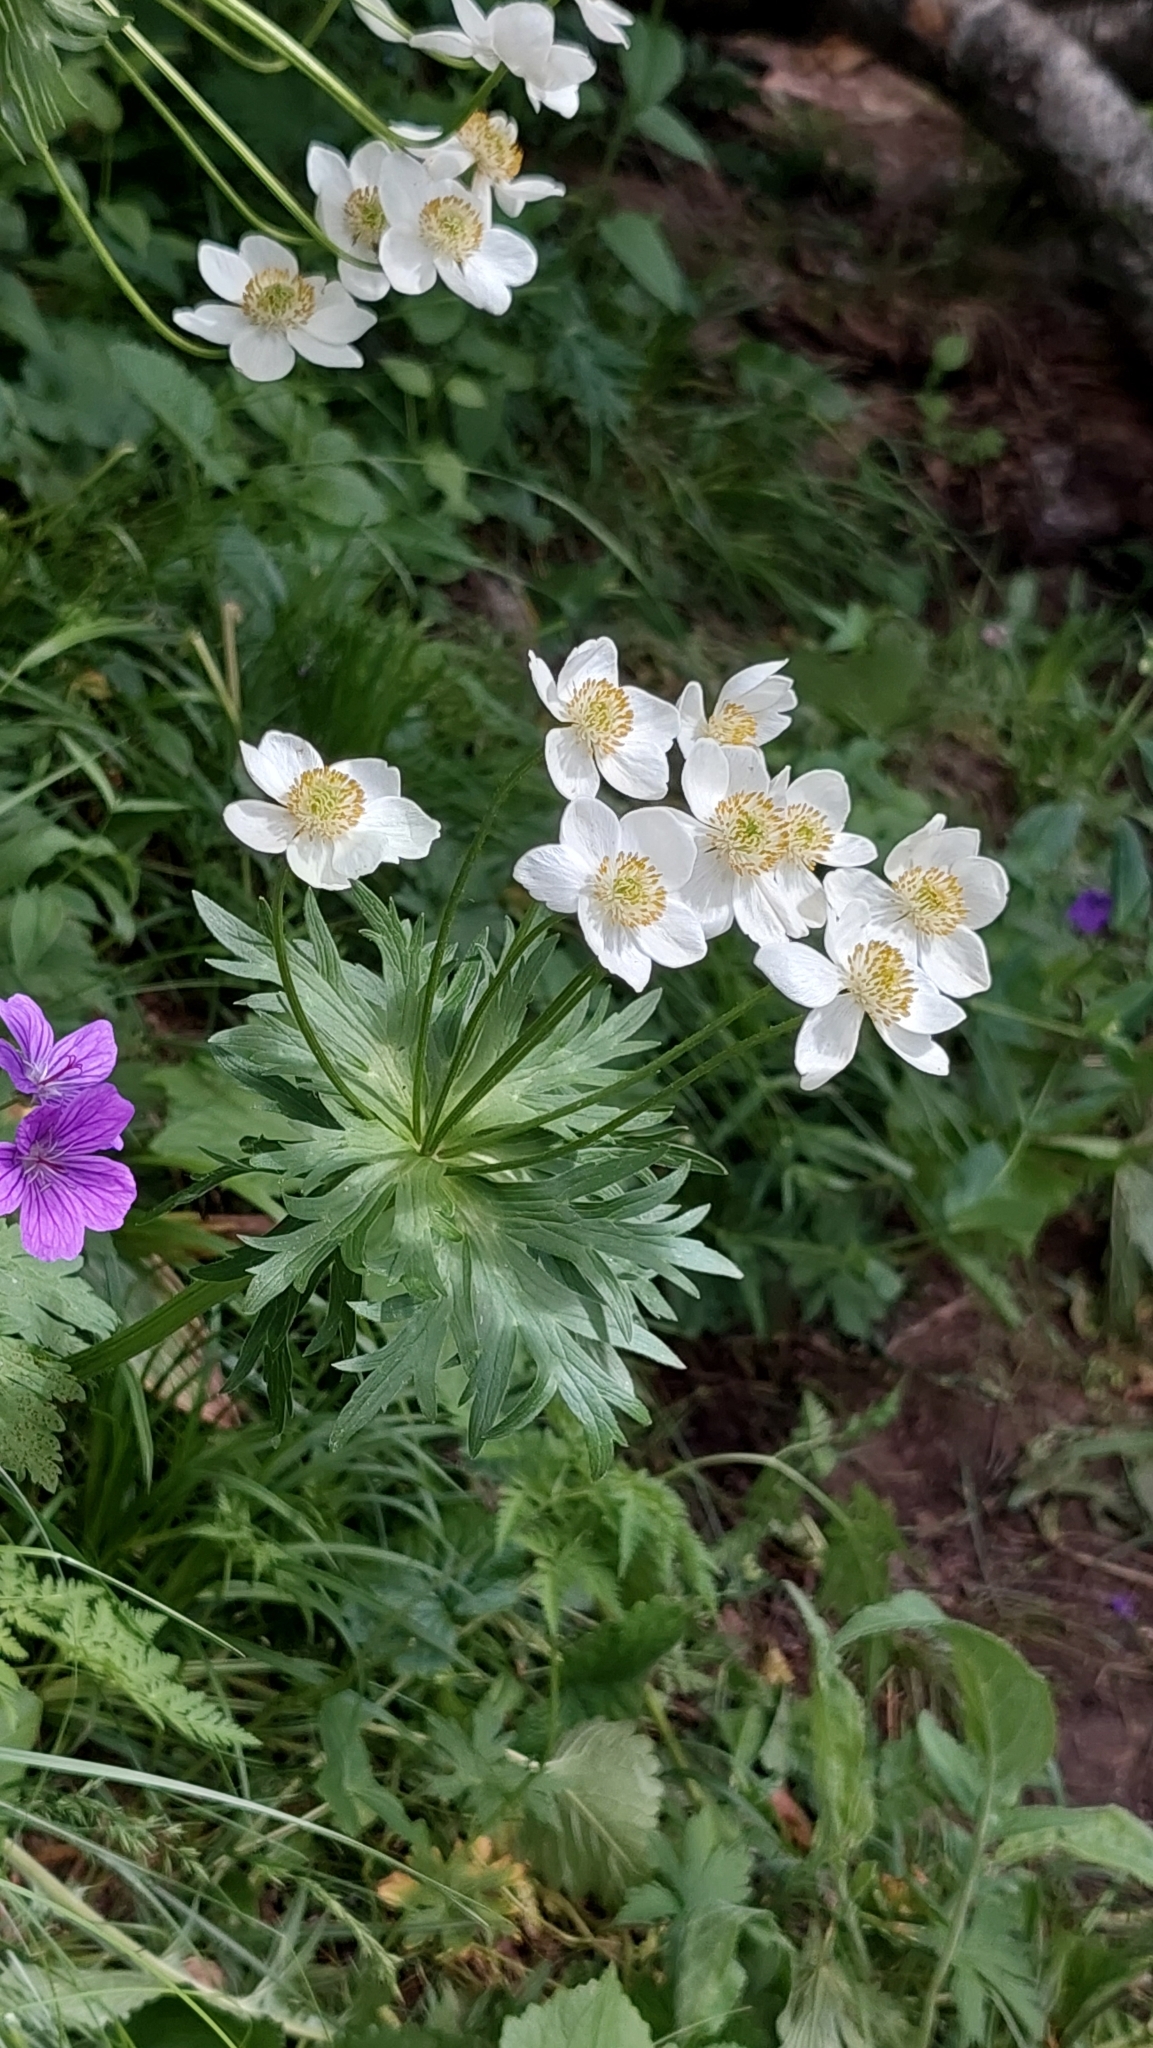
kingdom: Plantae
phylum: Tracheophyta
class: Magnoliopsida
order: Ranunculales
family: Ranunculaceae
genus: Anemonastrum
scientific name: Anemonastrum narcissiflorum
